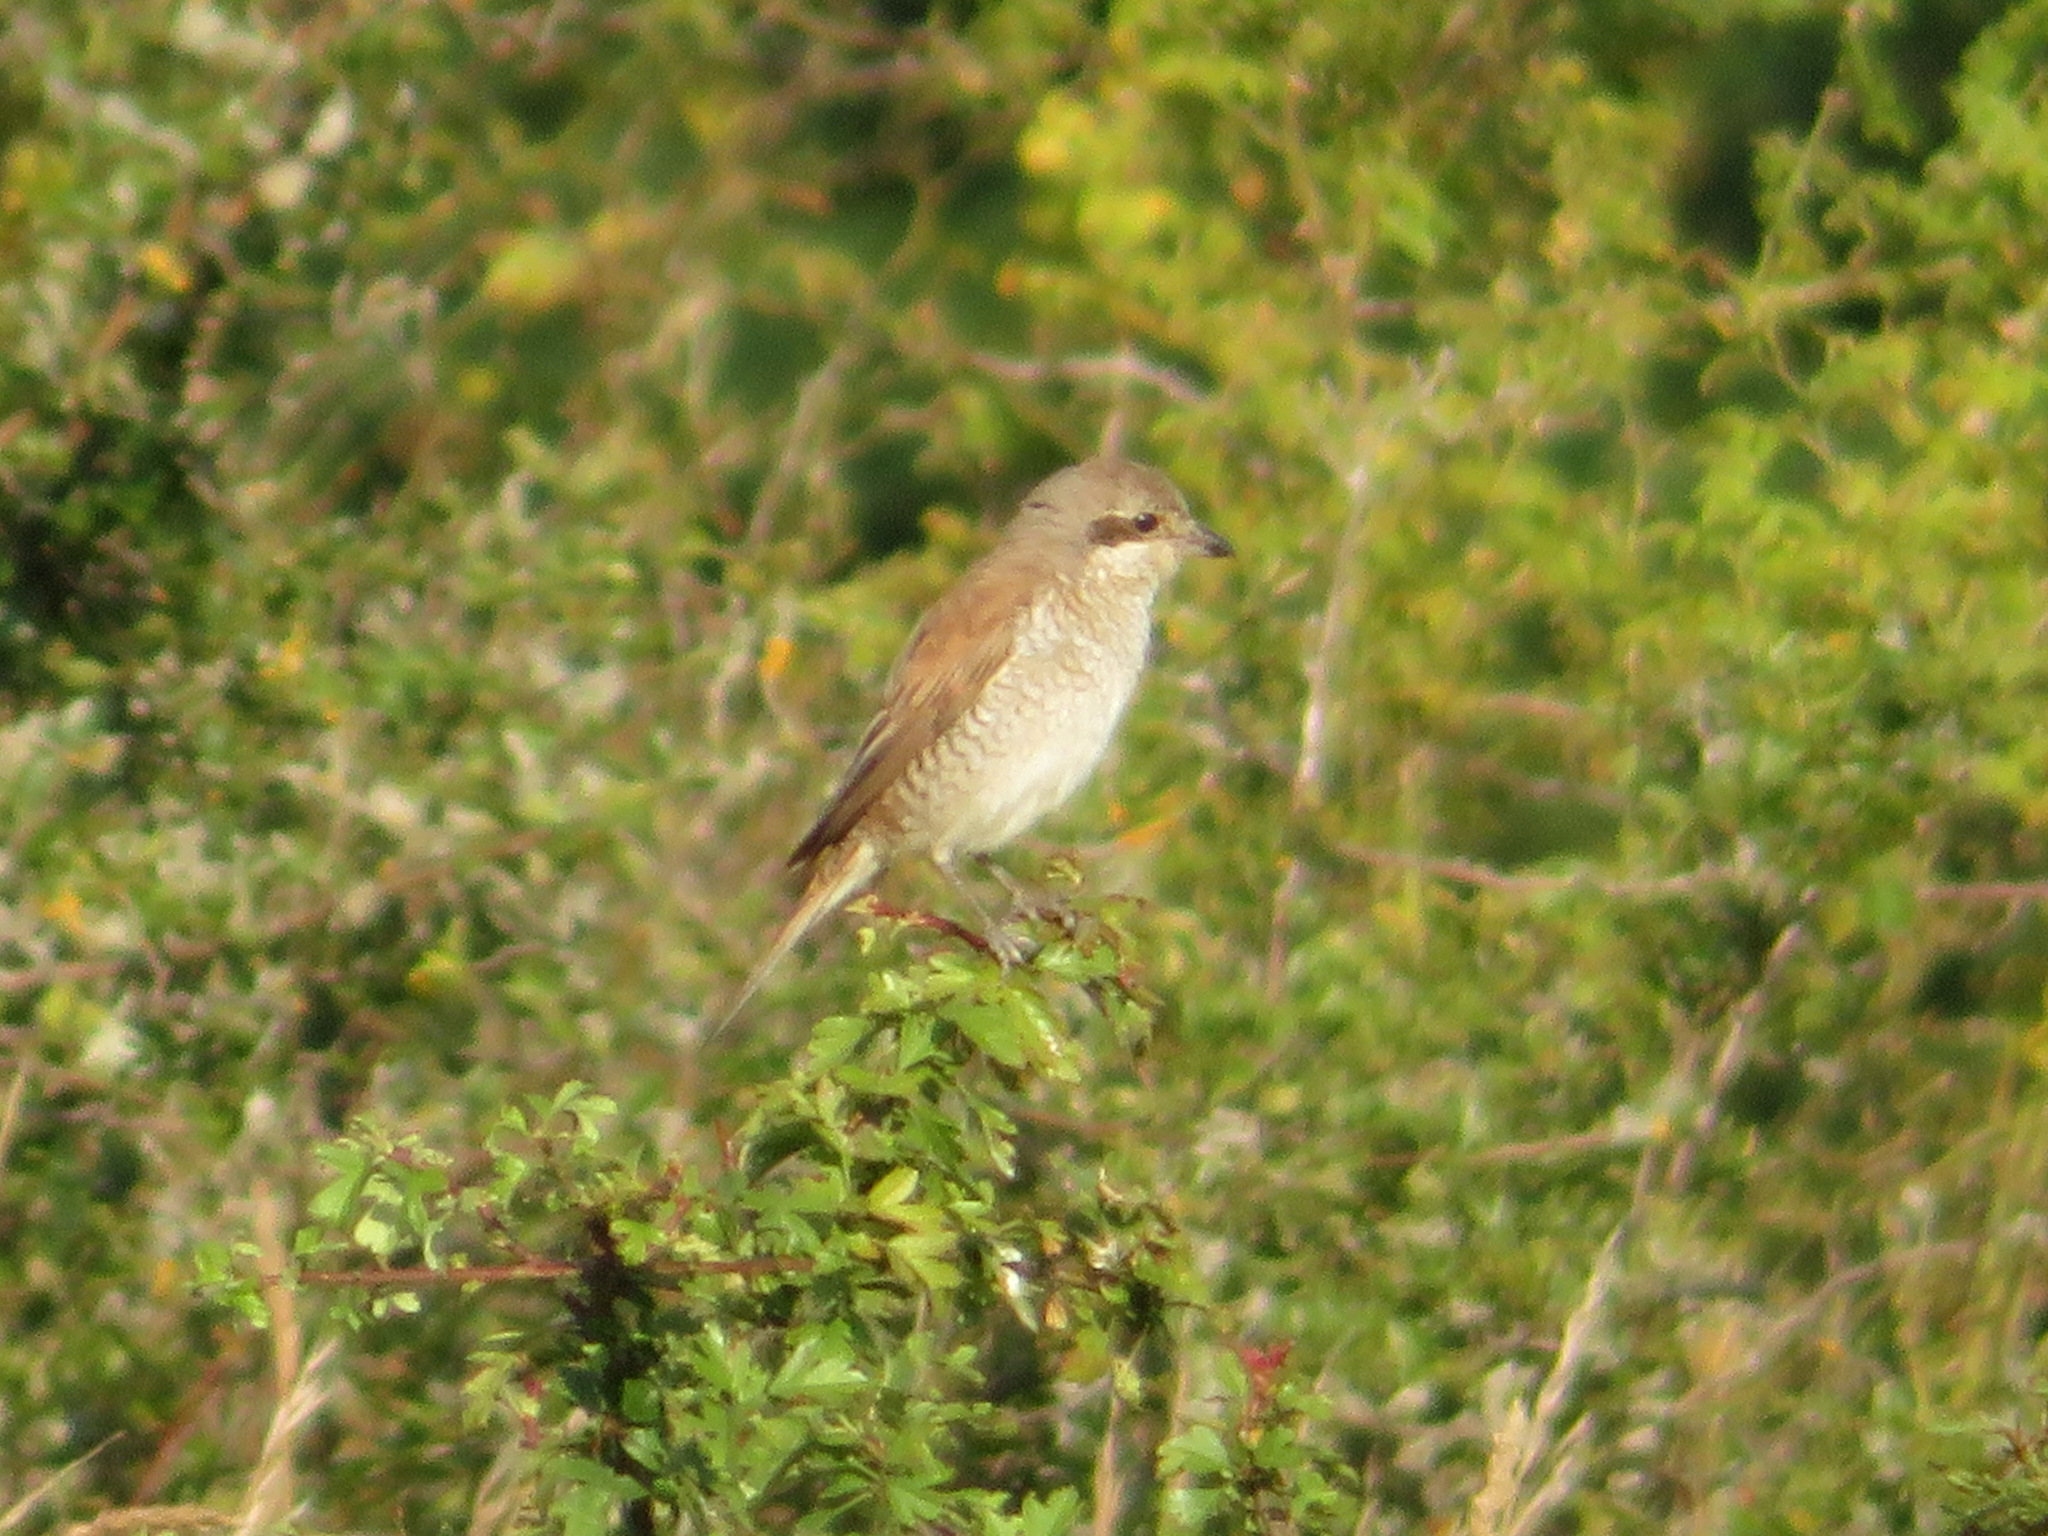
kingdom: Animalia
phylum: Chordata
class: Aves
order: Passeriformes
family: Laniidae
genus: Lanius
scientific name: Lanius collurio
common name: Red-backed shrike
